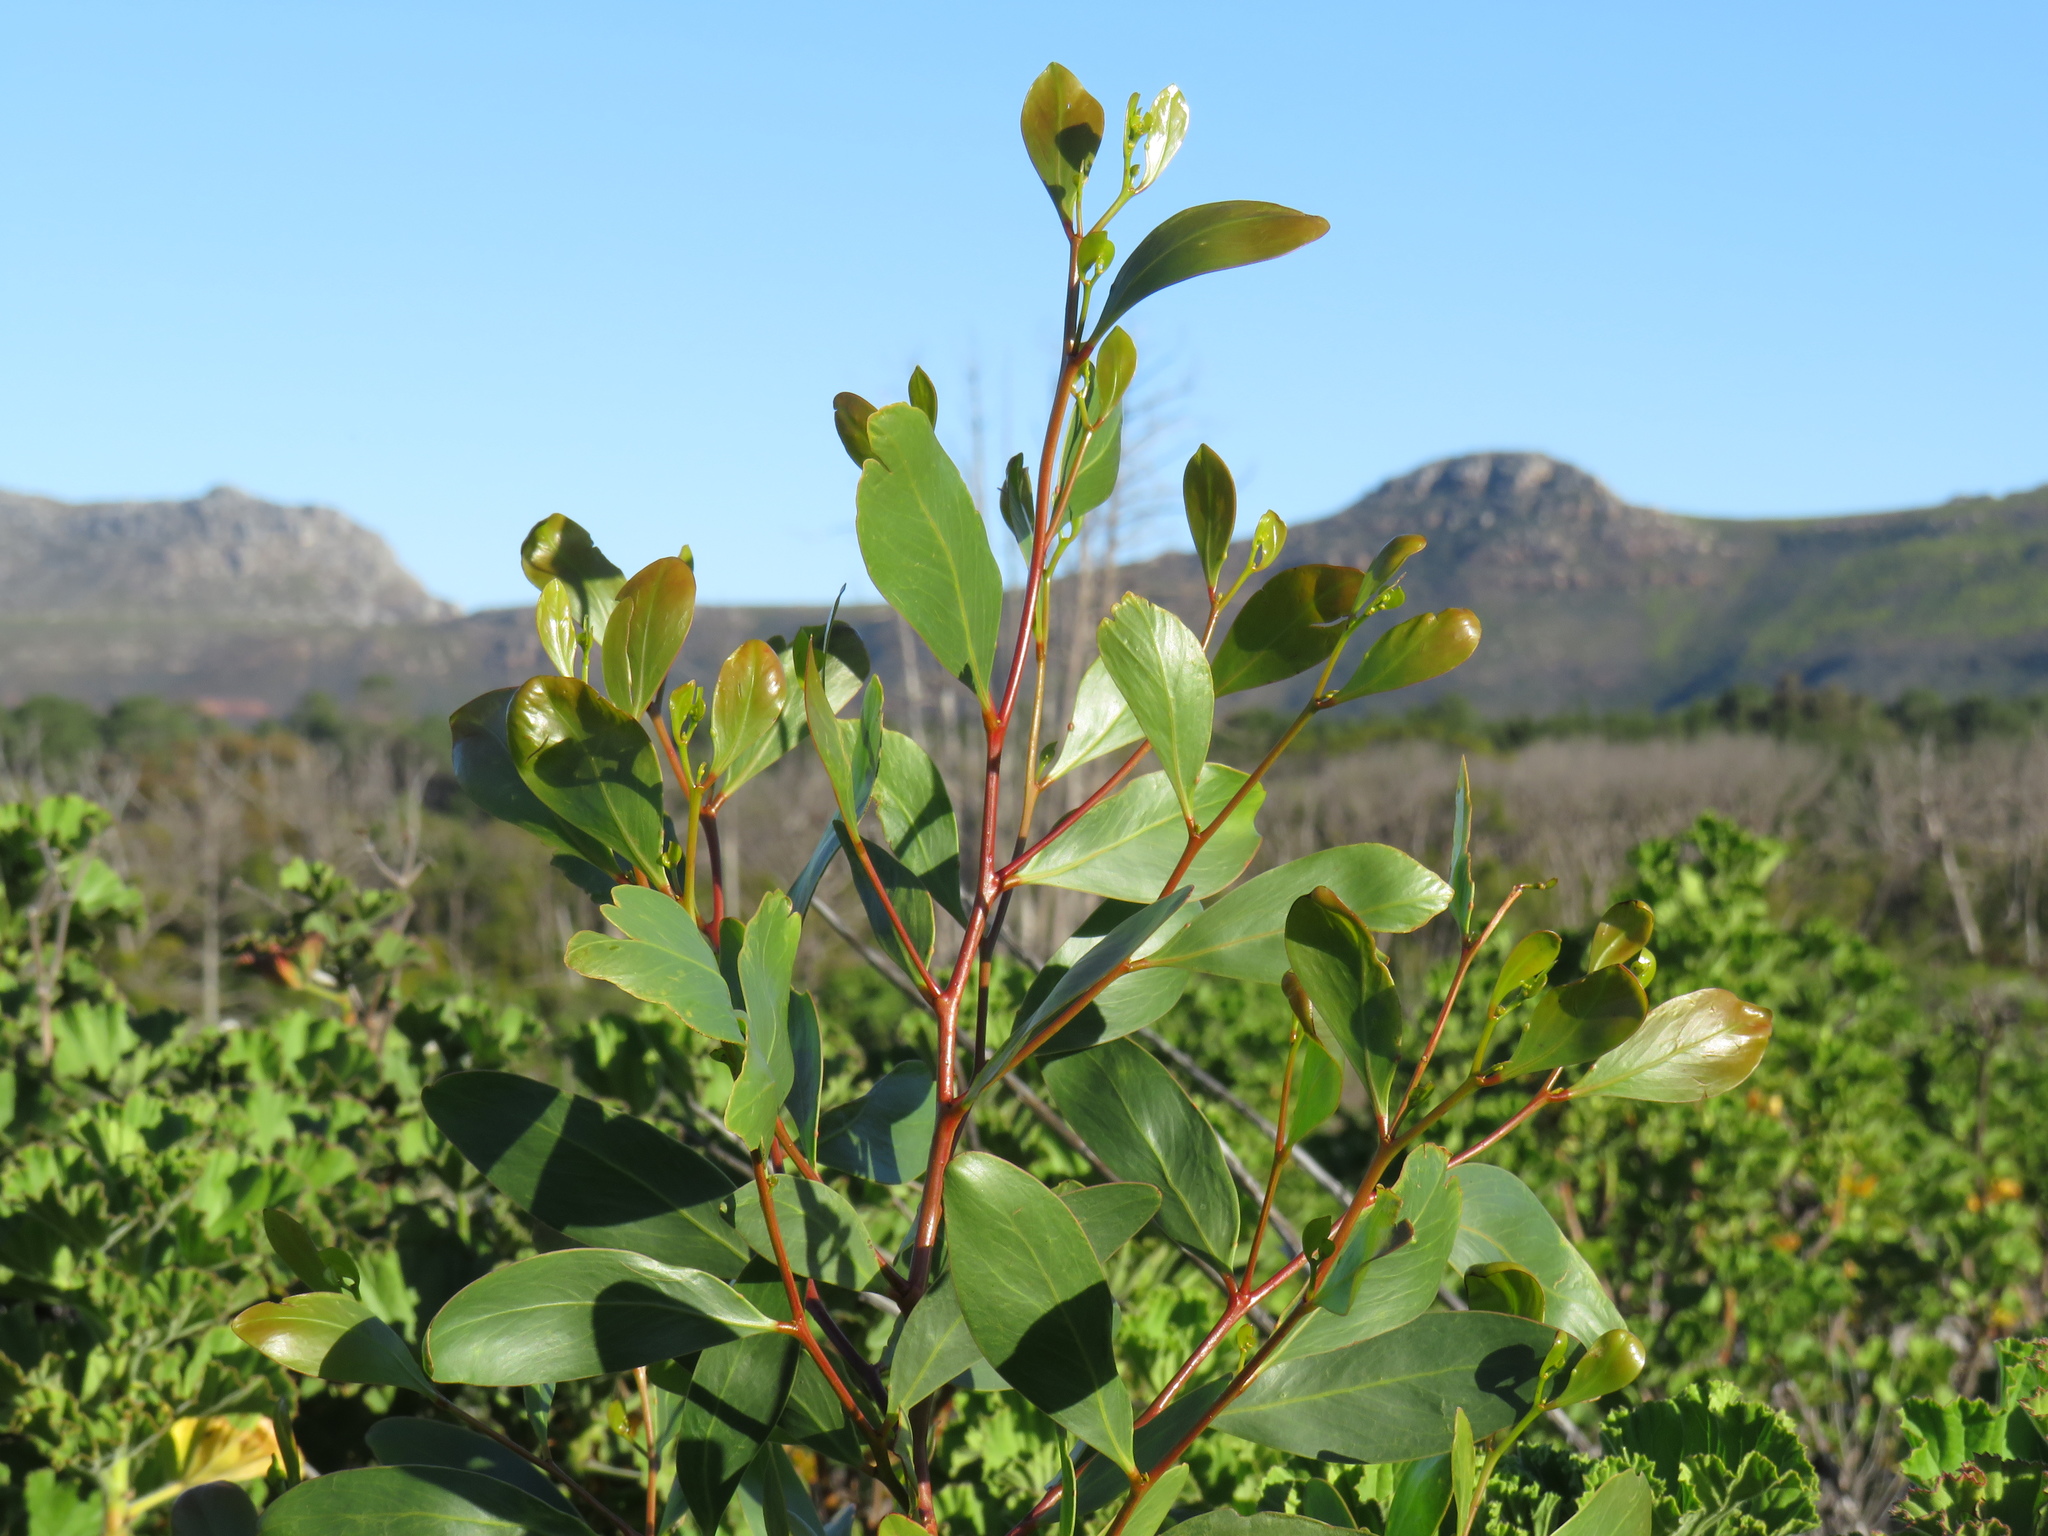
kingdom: Plantae
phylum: Tracheophyta
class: Magnoliopsida
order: Fabales
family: Fabaceae
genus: Acacia
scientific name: Acacia pycnantha
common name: Golden wattle
